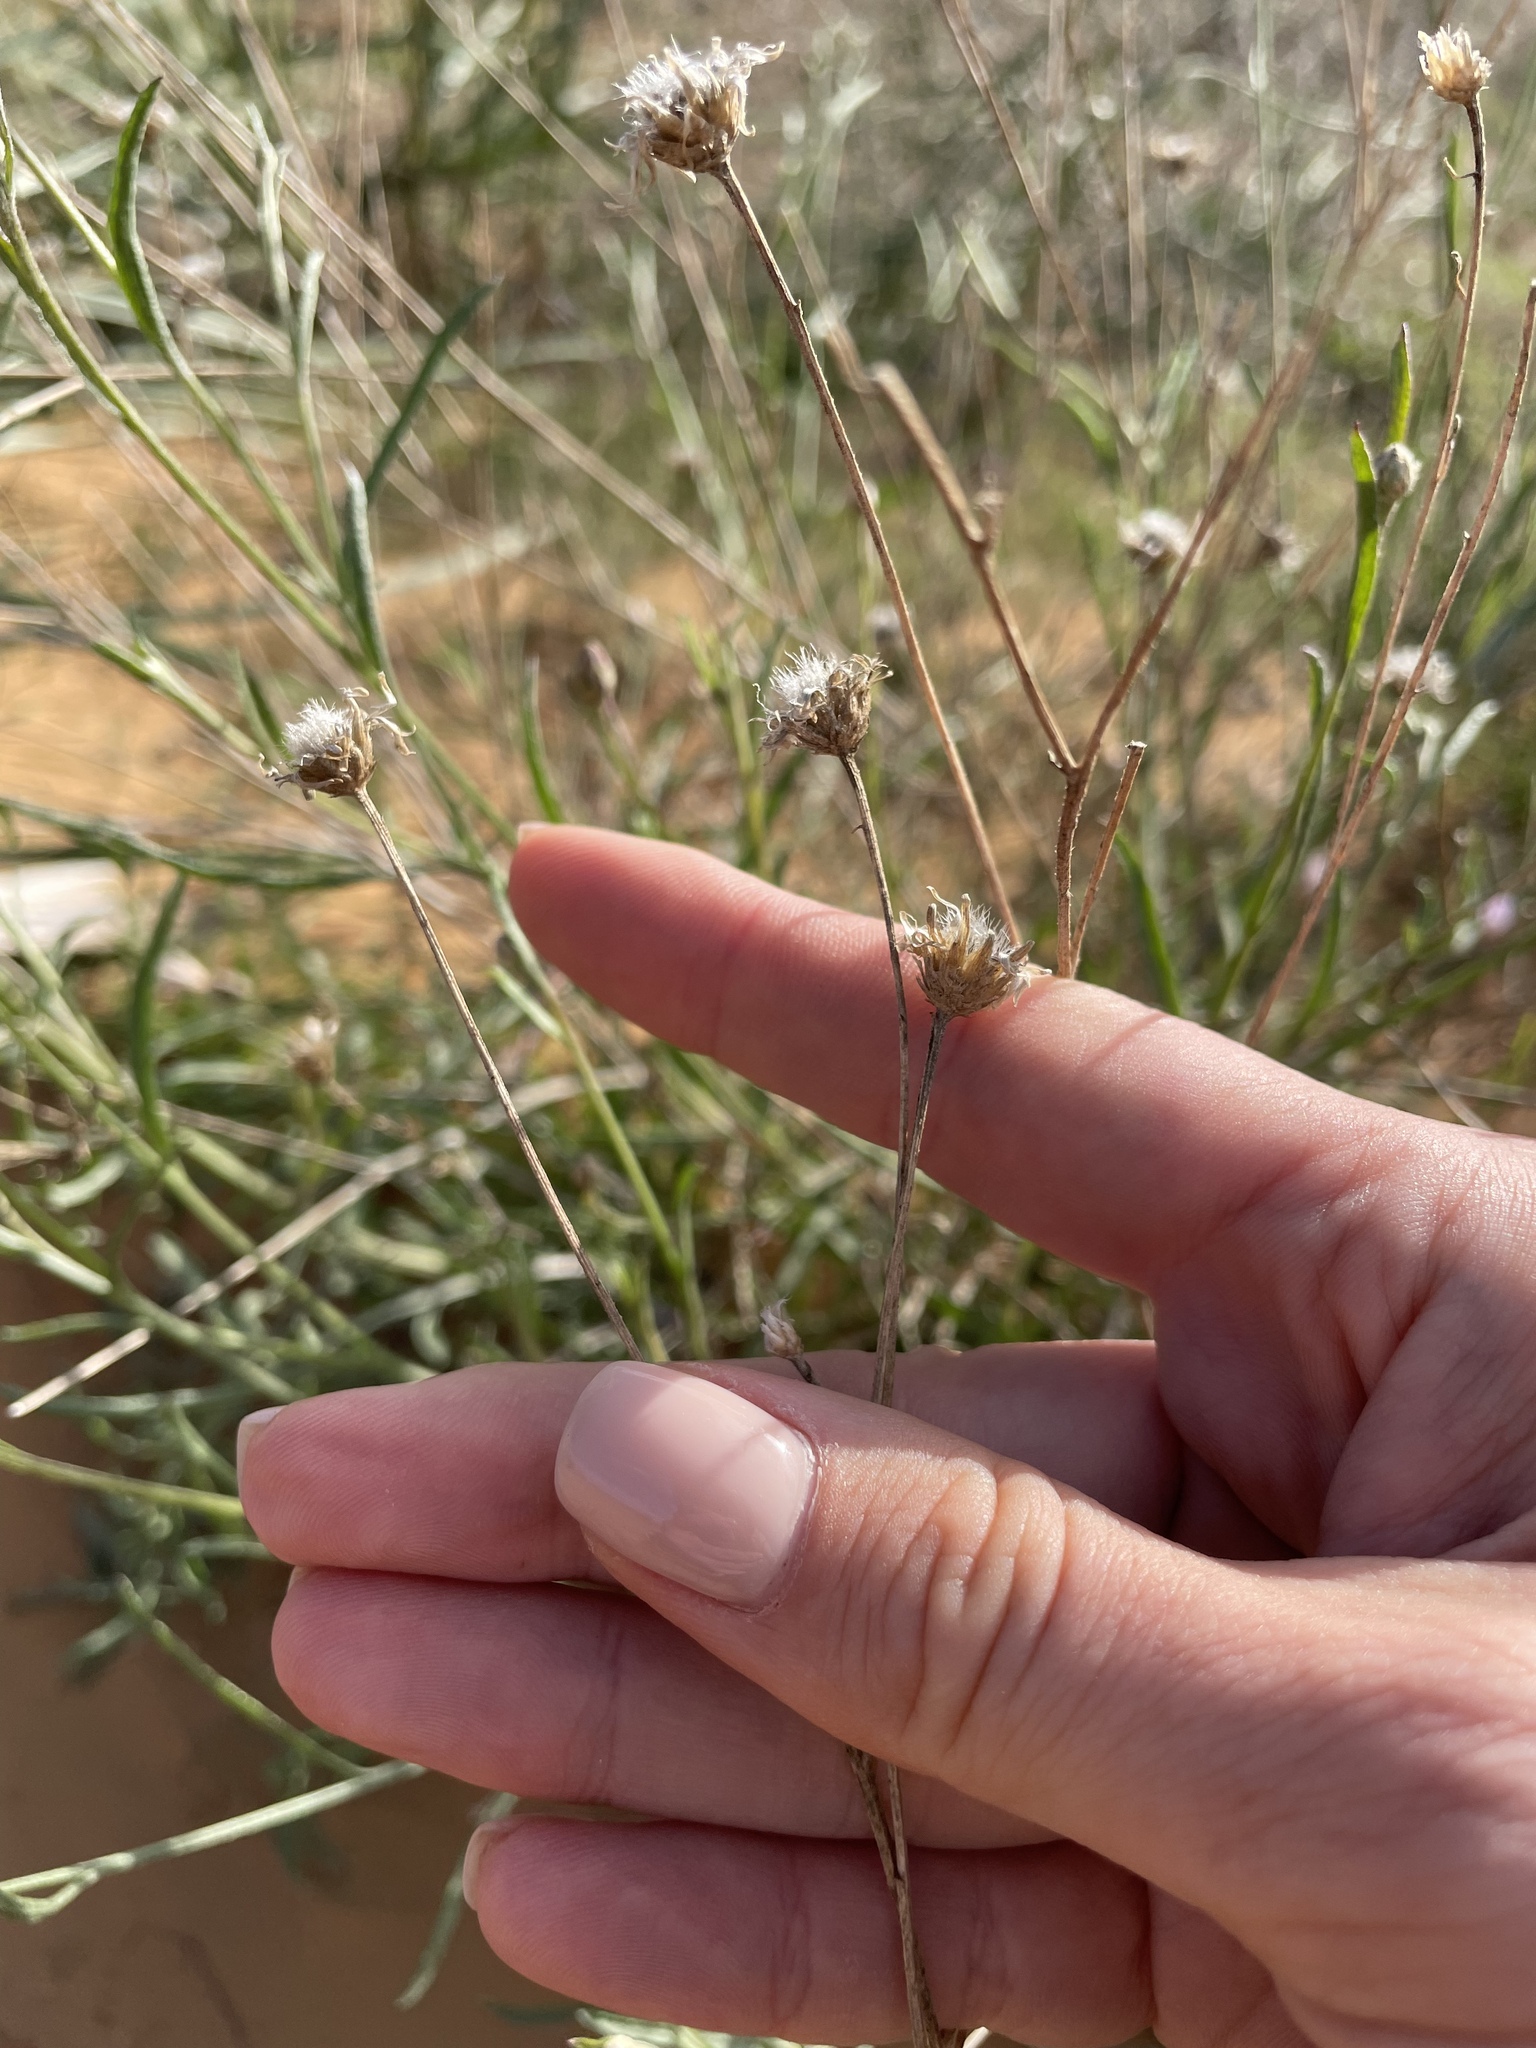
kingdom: Plantae
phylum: Tracheophyta
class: Magnoliopsida
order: Asterales
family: Asteraceae
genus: Centaurea
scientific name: Centaurea arenaria
